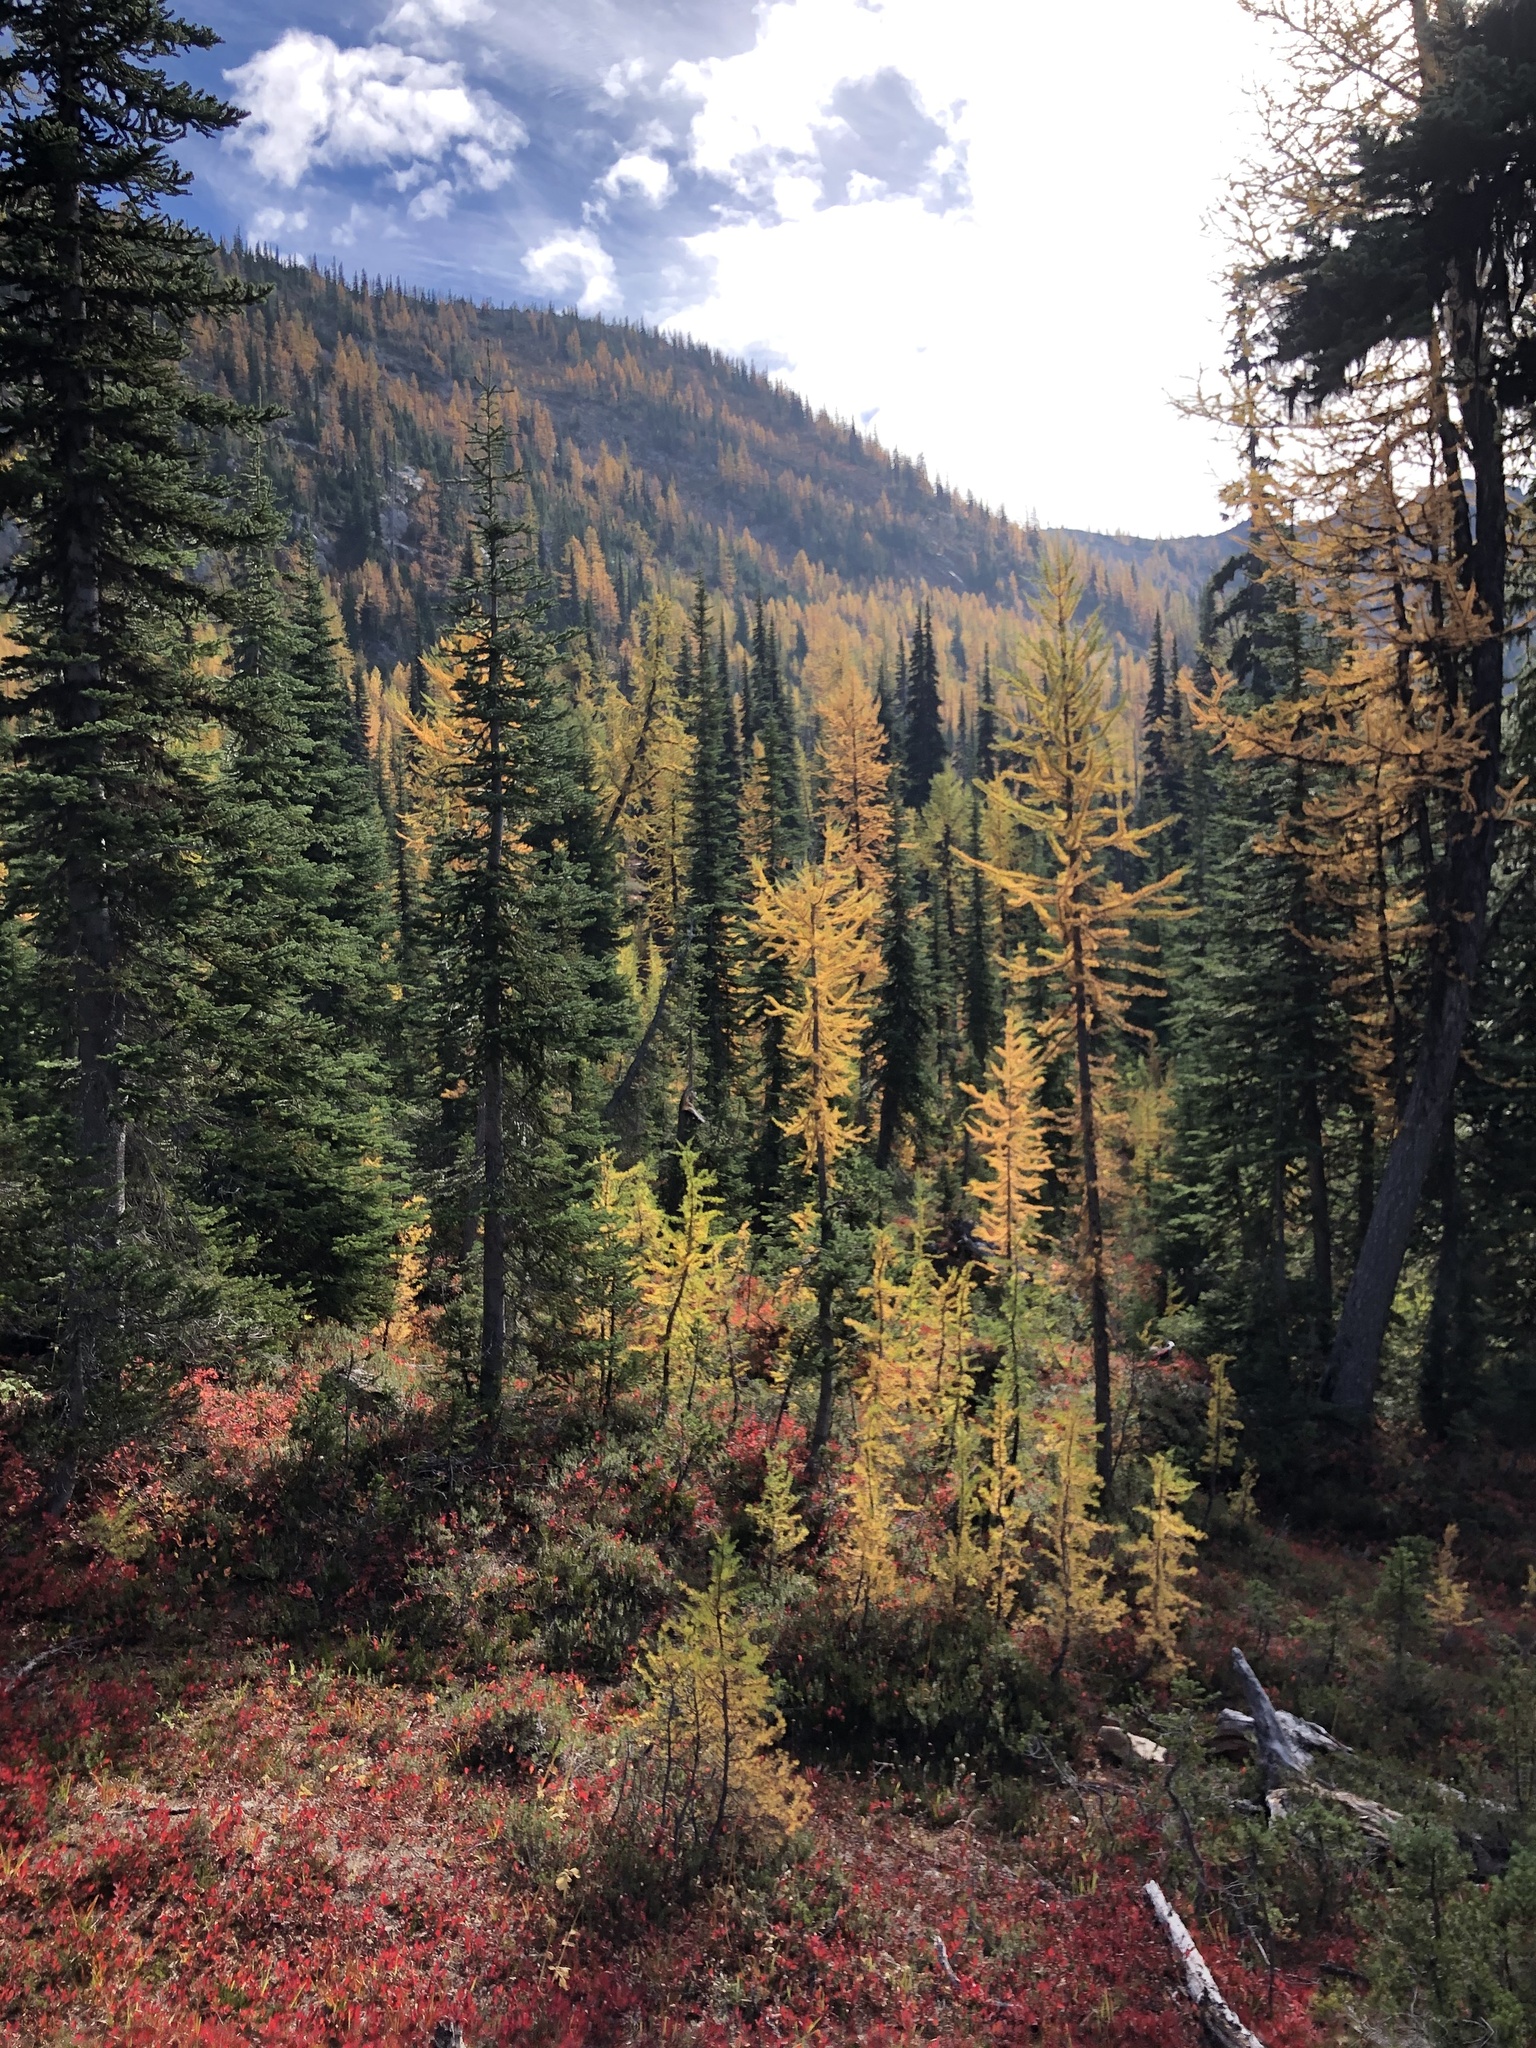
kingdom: Plantae
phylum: Tracheophyta
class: Pinopsida
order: Pinales
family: Pinaceae
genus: Larix
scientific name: Larix lyallii
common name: Alpine larch
